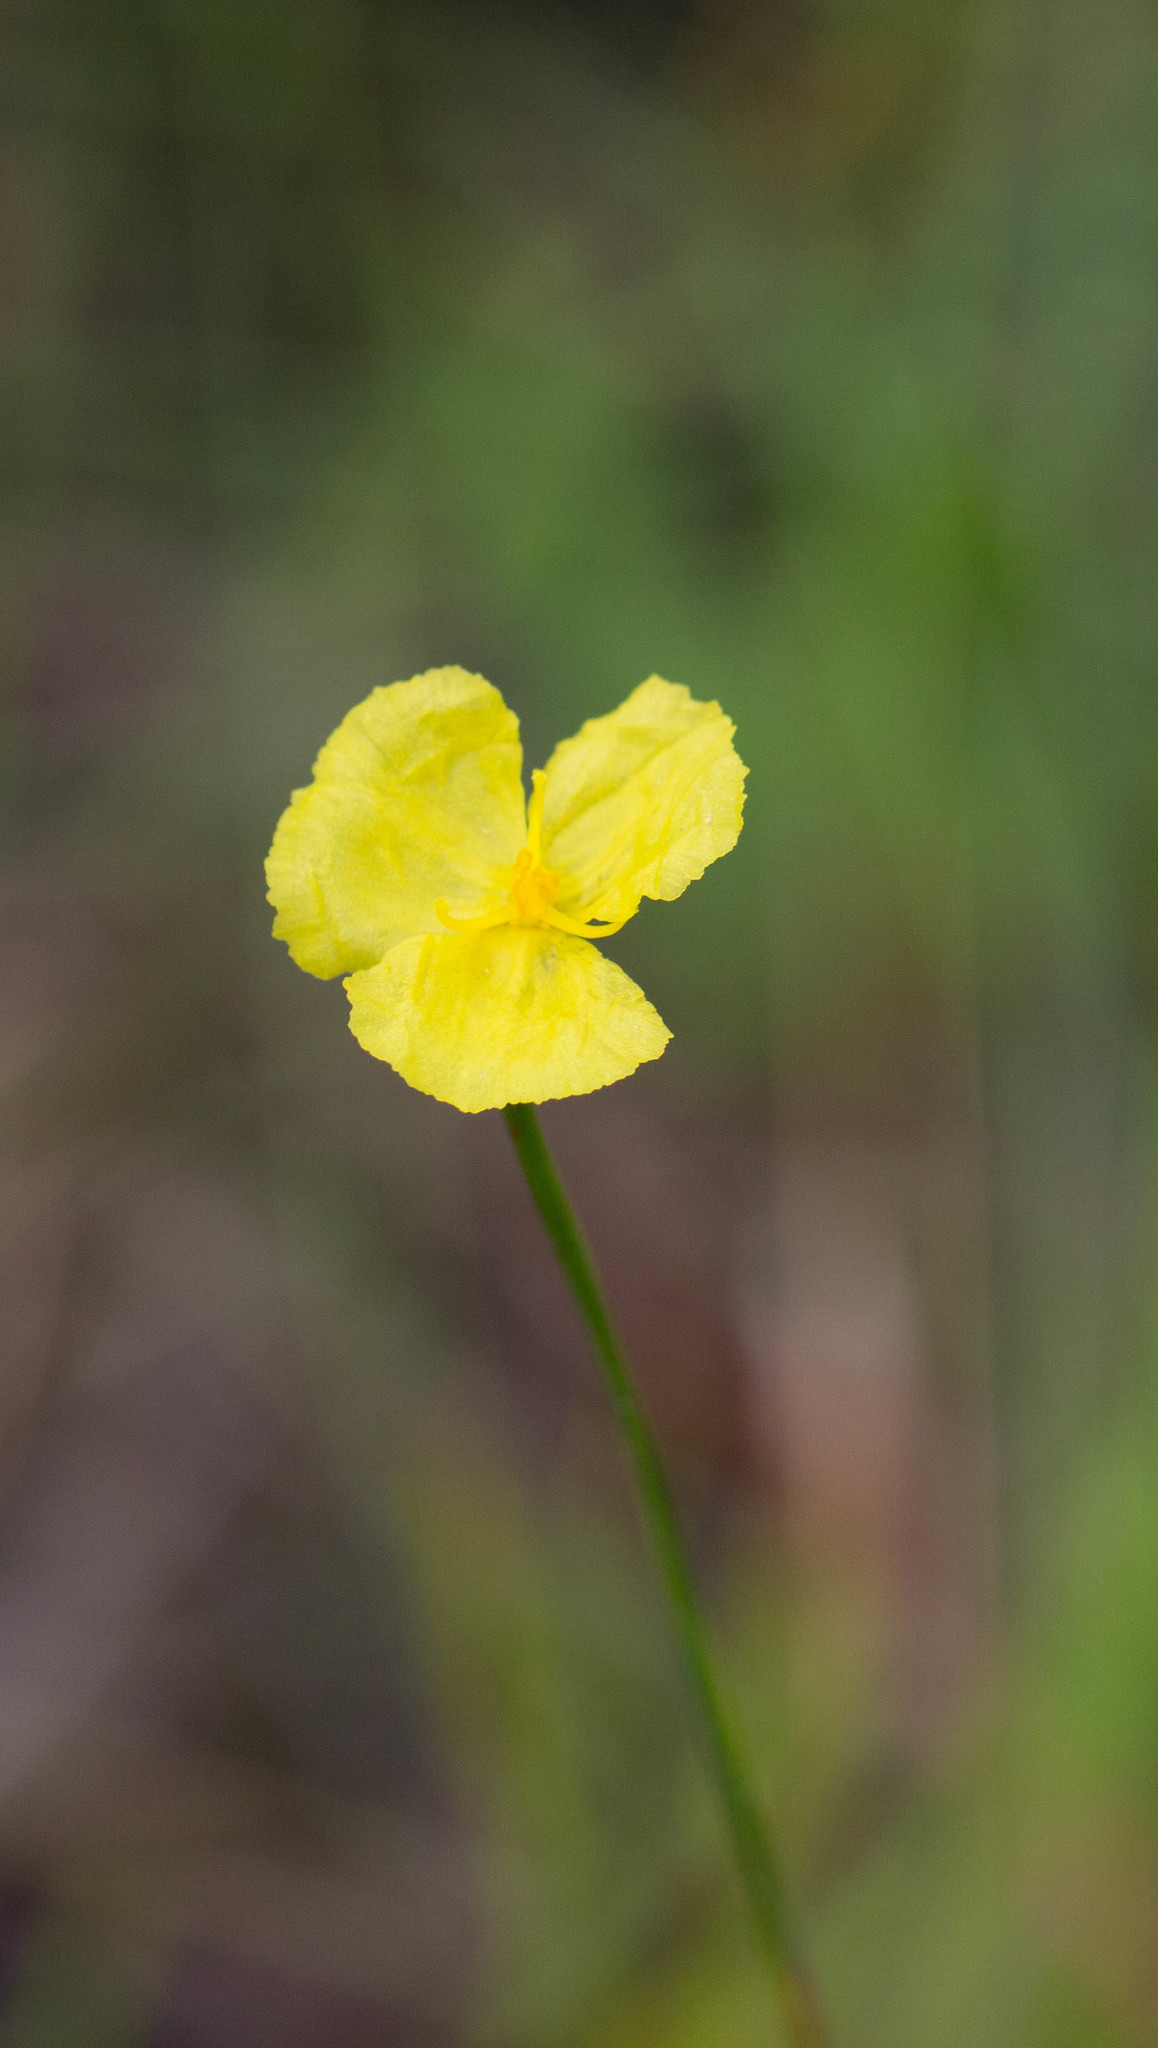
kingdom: Plantae
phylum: Tracheophyta
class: Liliopsida
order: Poales
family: Xyridaceae
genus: Xyris
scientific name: Xyris baldwiniana
